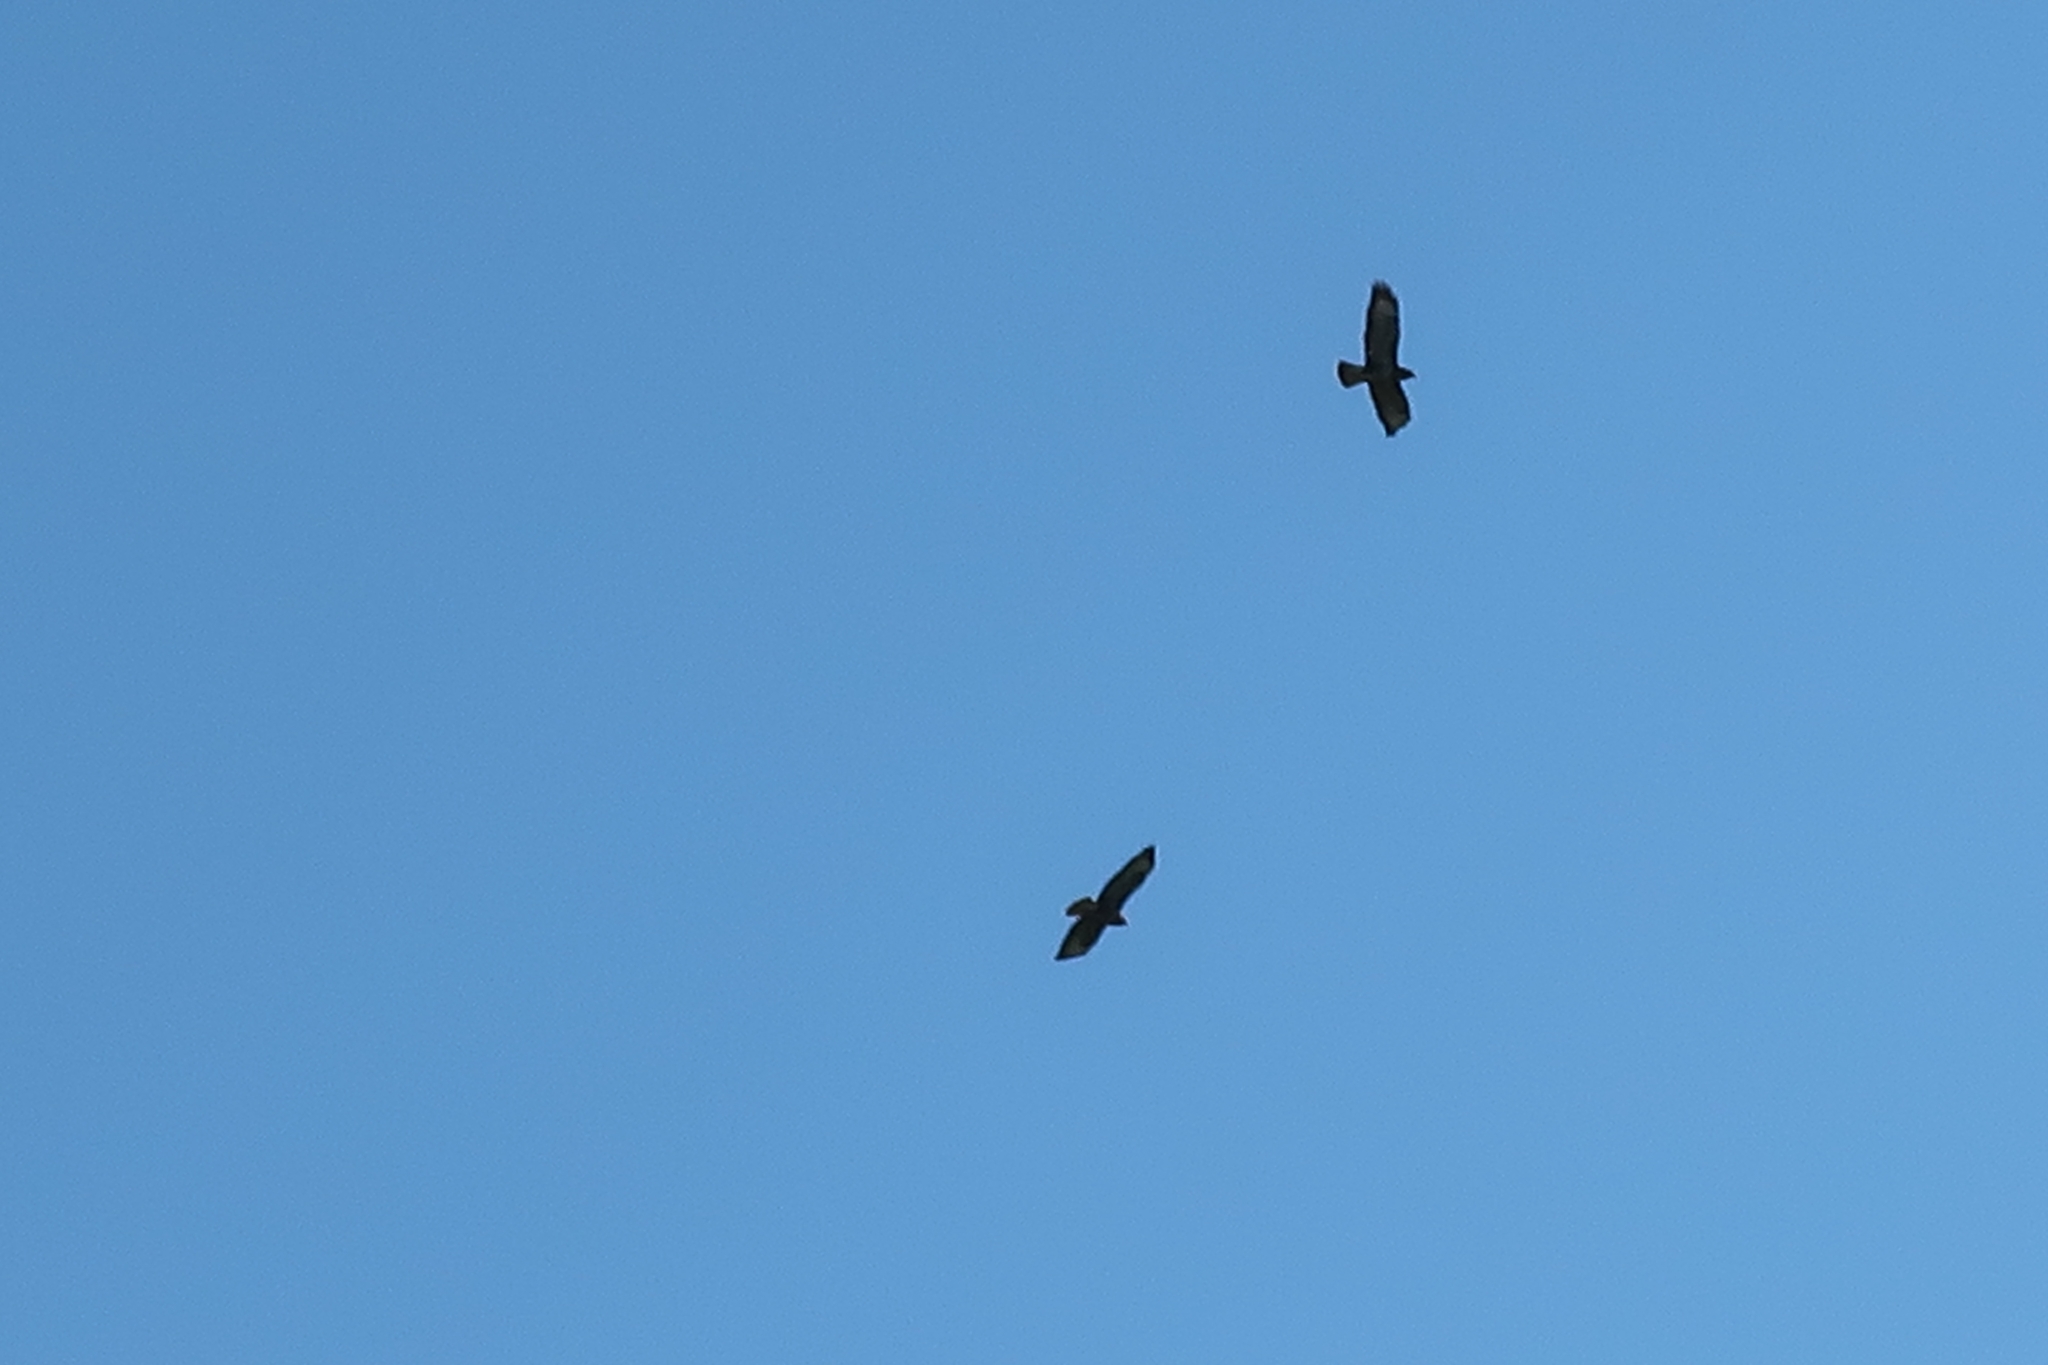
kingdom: Animalia
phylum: Chordata
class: Aves
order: Accipitriformes
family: Accipitridae
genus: Buteo
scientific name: Buteo buteo
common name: Common buzzard
